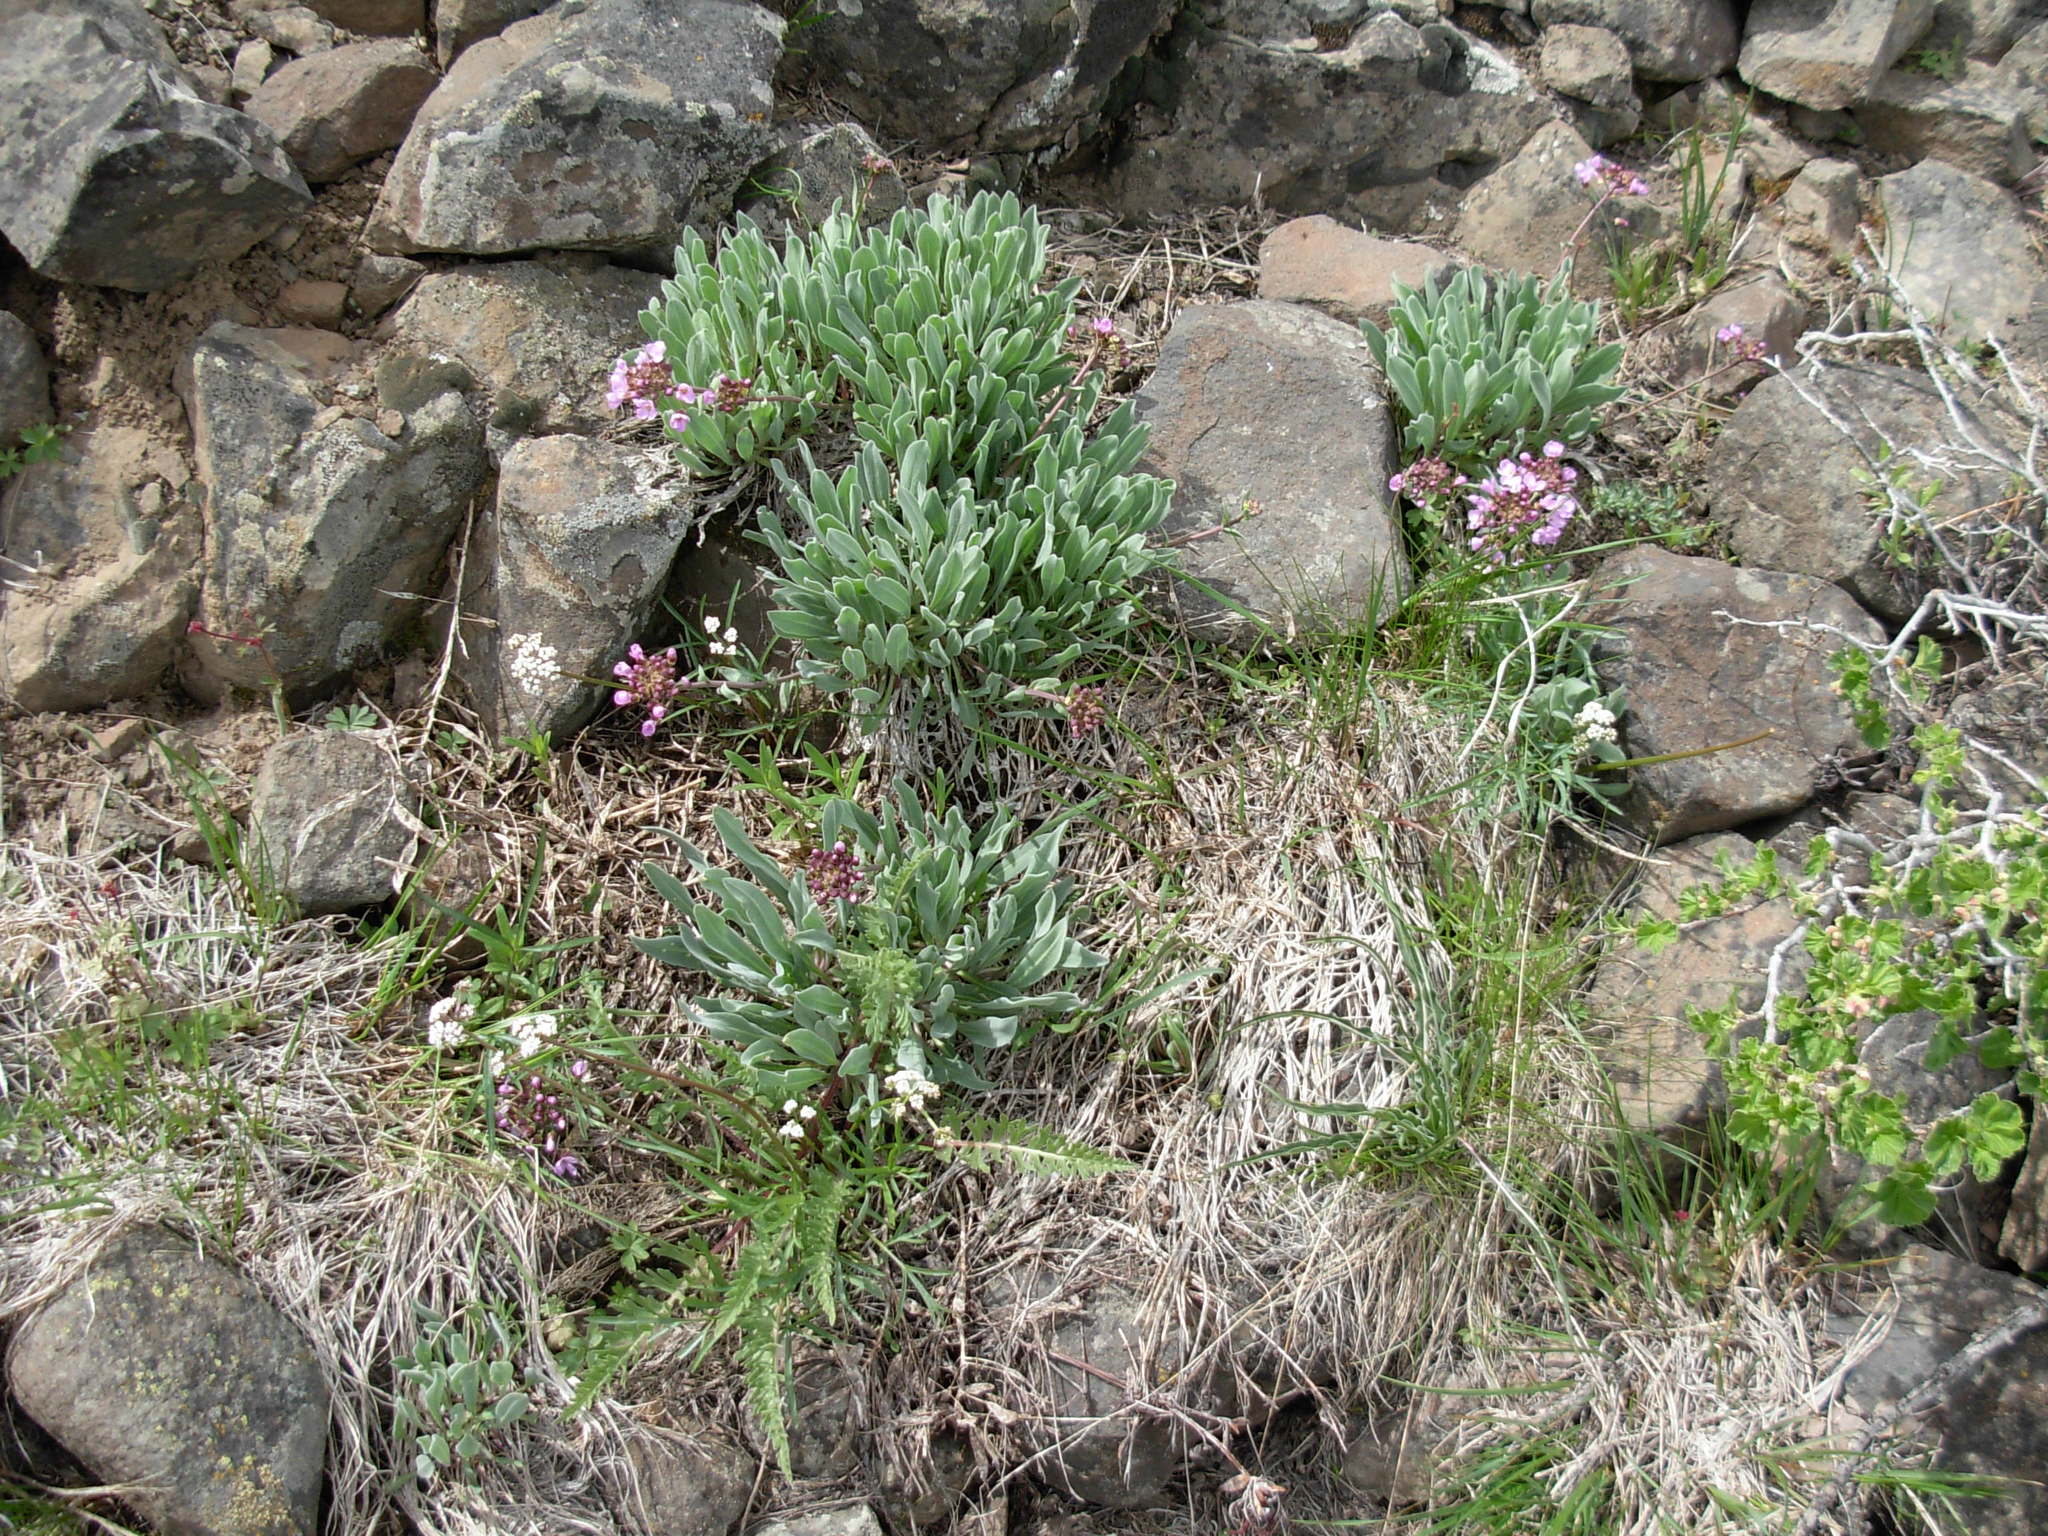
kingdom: Plantae
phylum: Tracheophyta
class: Magnoliopsida
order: Brassicales
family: Brassicaceae
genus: Phoenicaulis
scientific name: Phoenicaulis cheiranthoides
